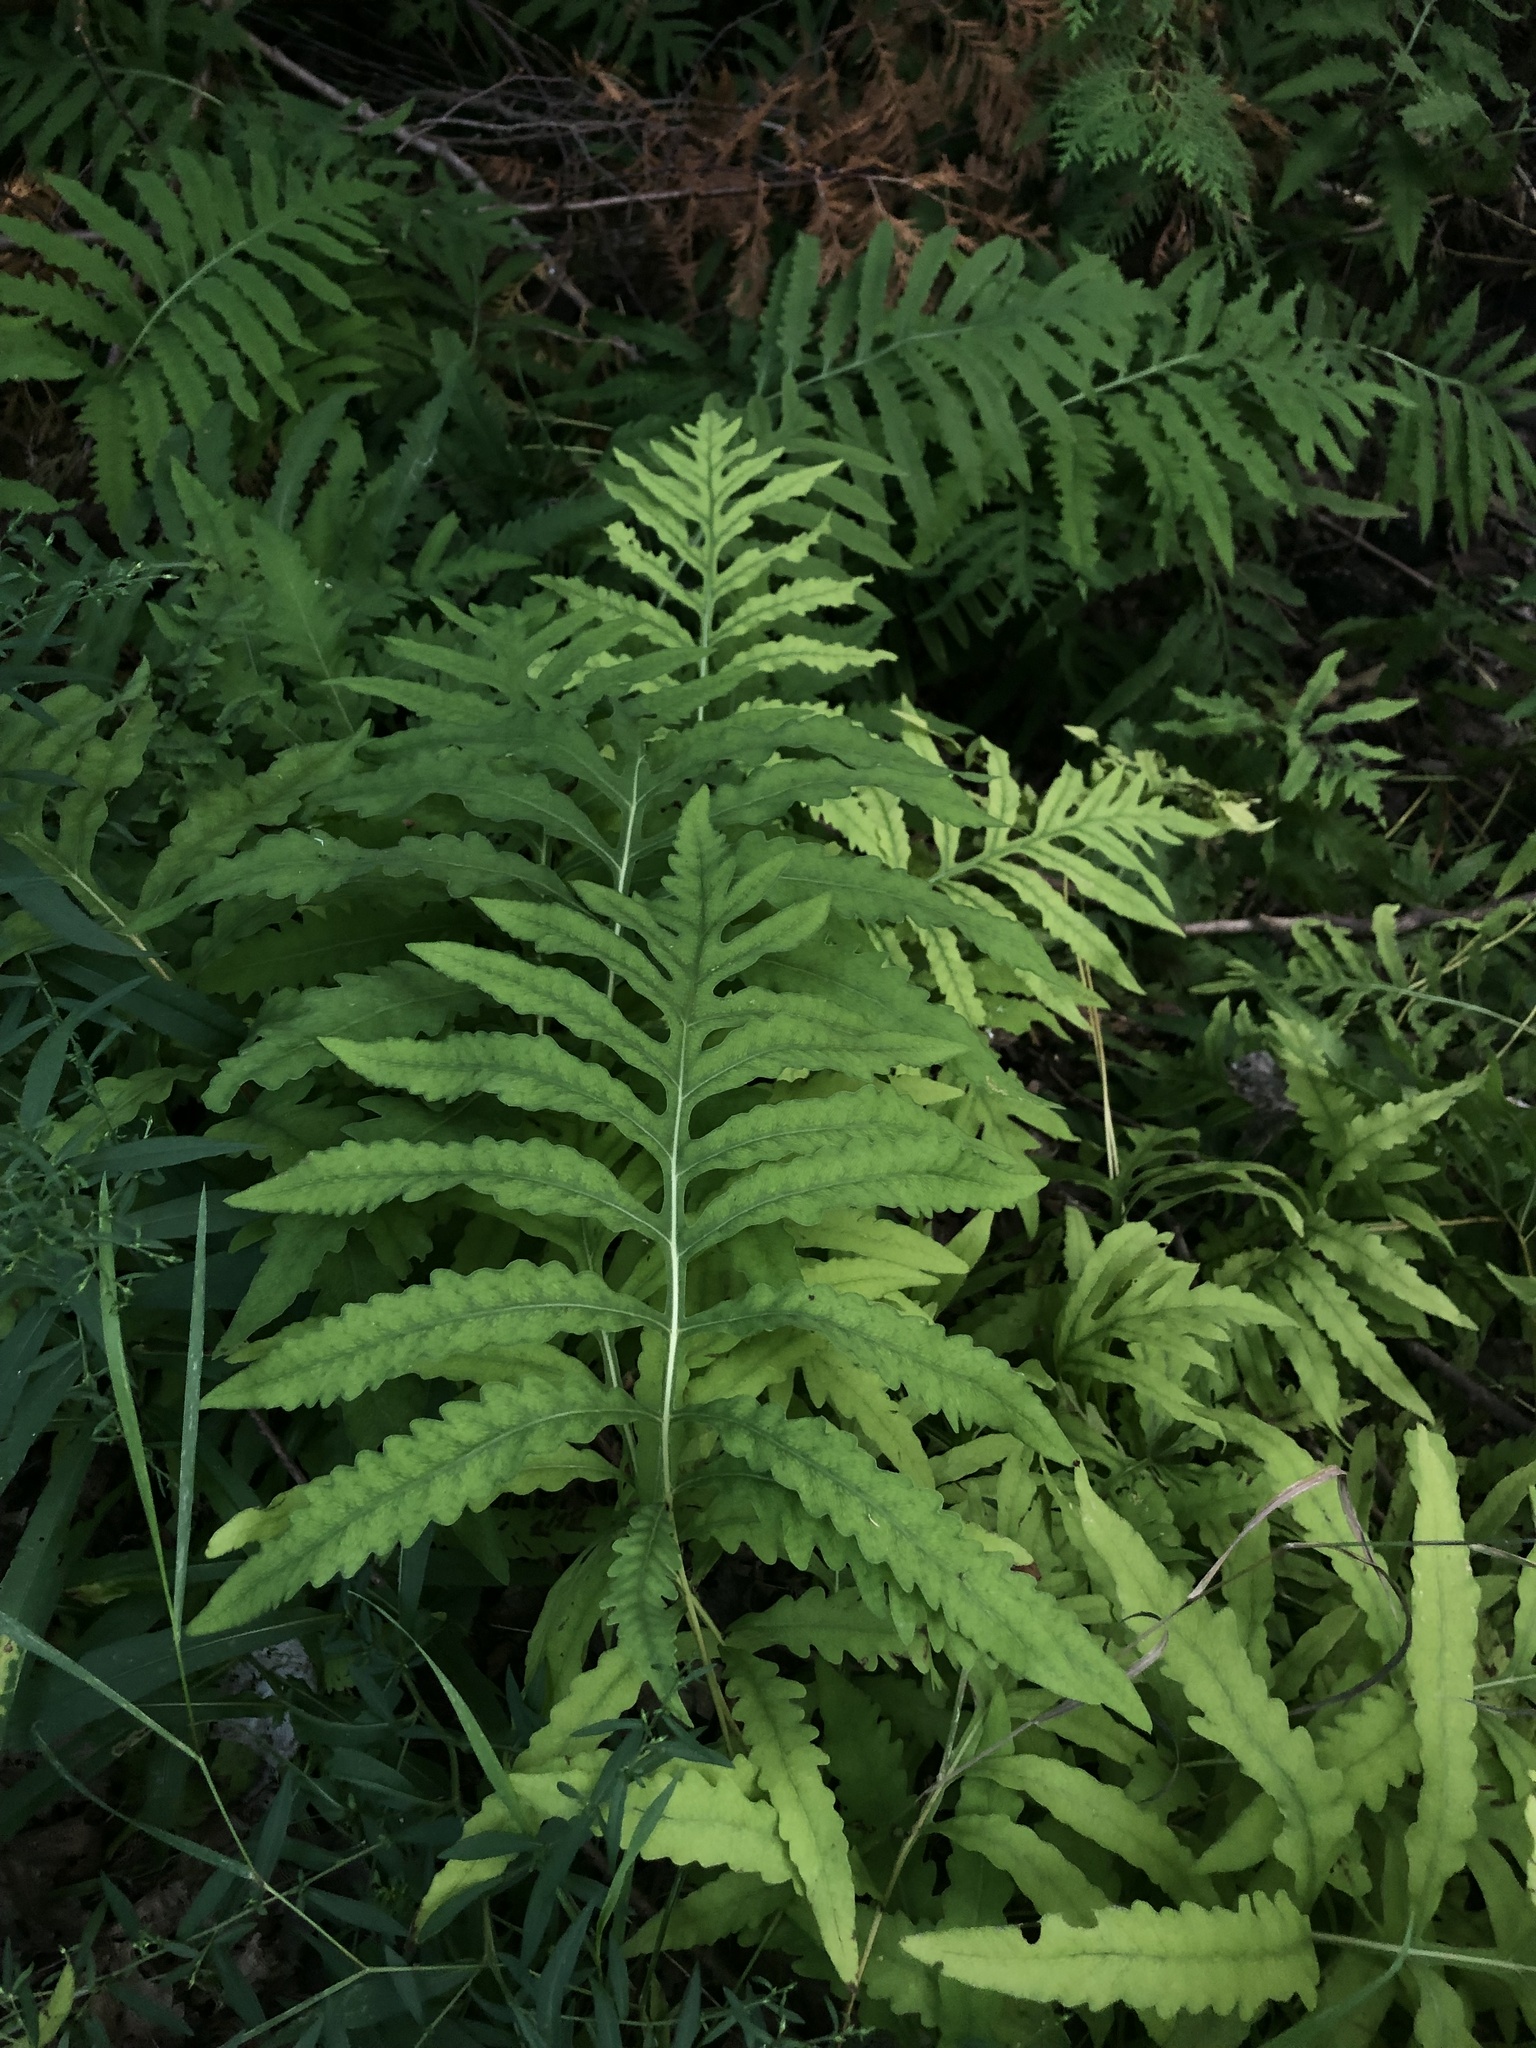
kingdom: Plantae
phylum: Tracheophyta
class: Polypodiopsida
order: Polypodiales
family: Onocleaceae
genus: Onoclea
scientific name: Onoclea sensibilis
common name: Sensitive fern
